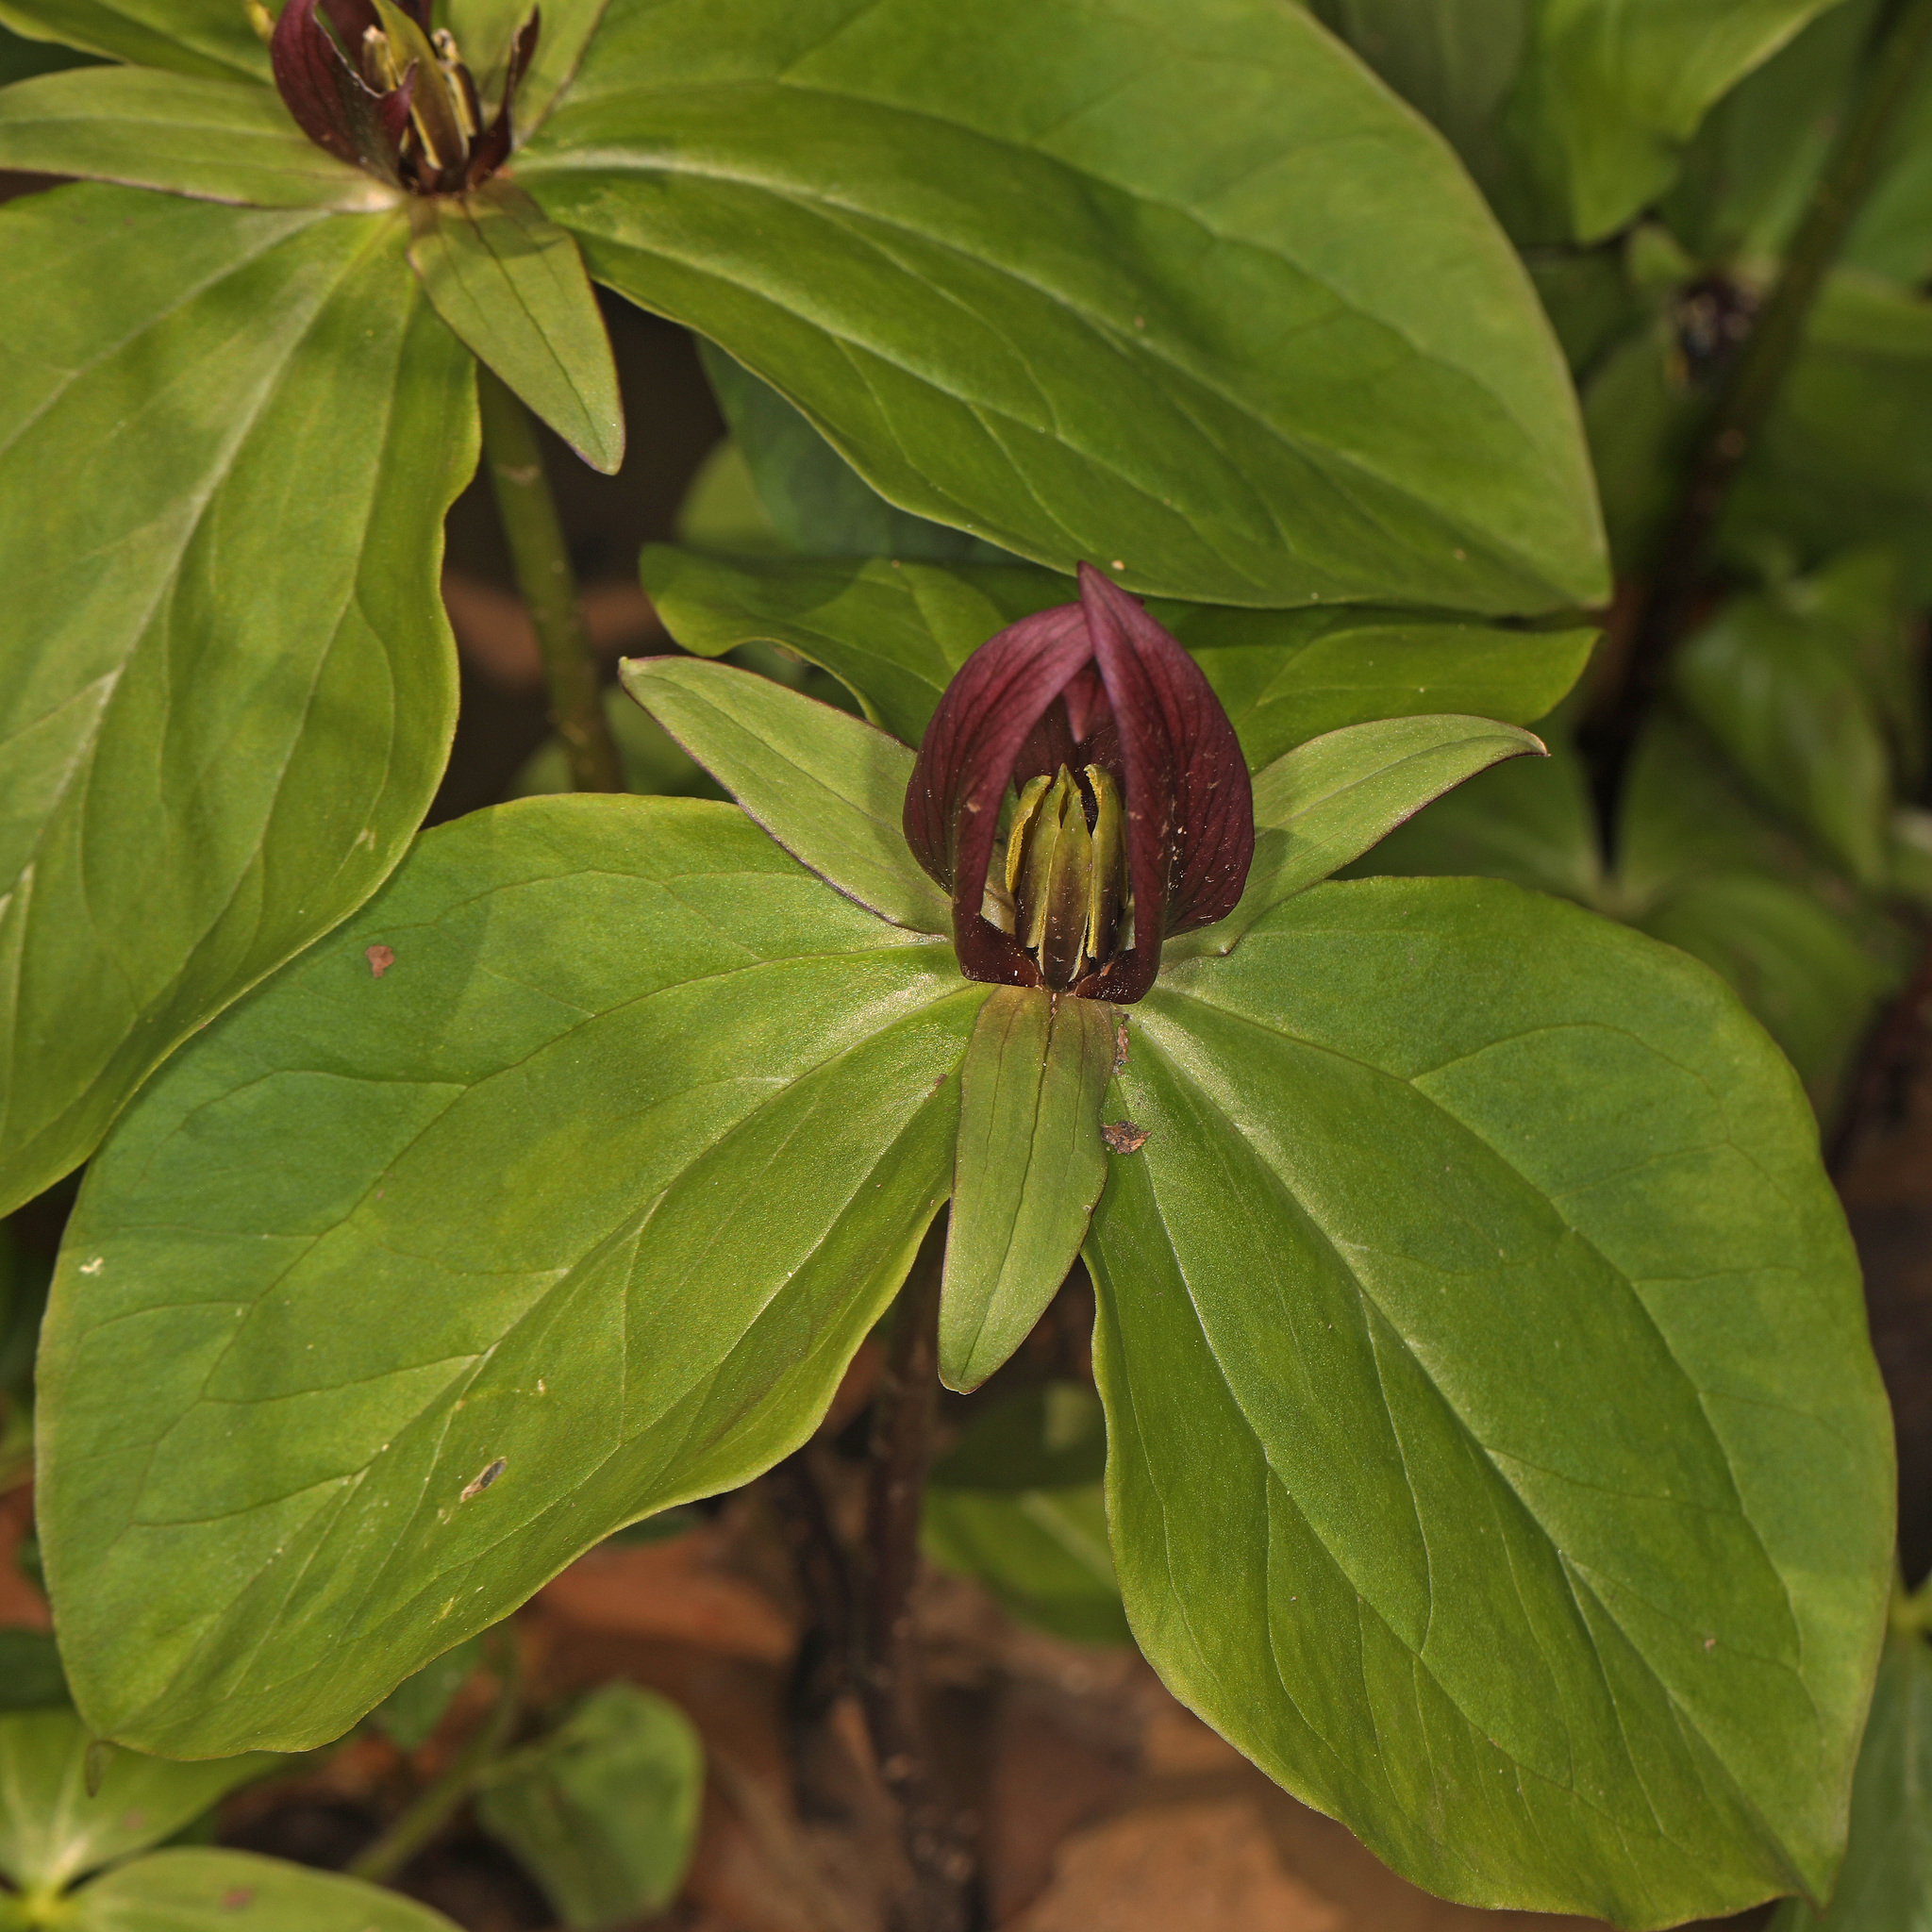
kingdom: Plantae
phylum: Tracheophyta
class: Liliopsida
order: Liliales
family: Melanthiaceae
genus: Trillium
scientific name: Trillium sessile
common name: Sessile trillium
